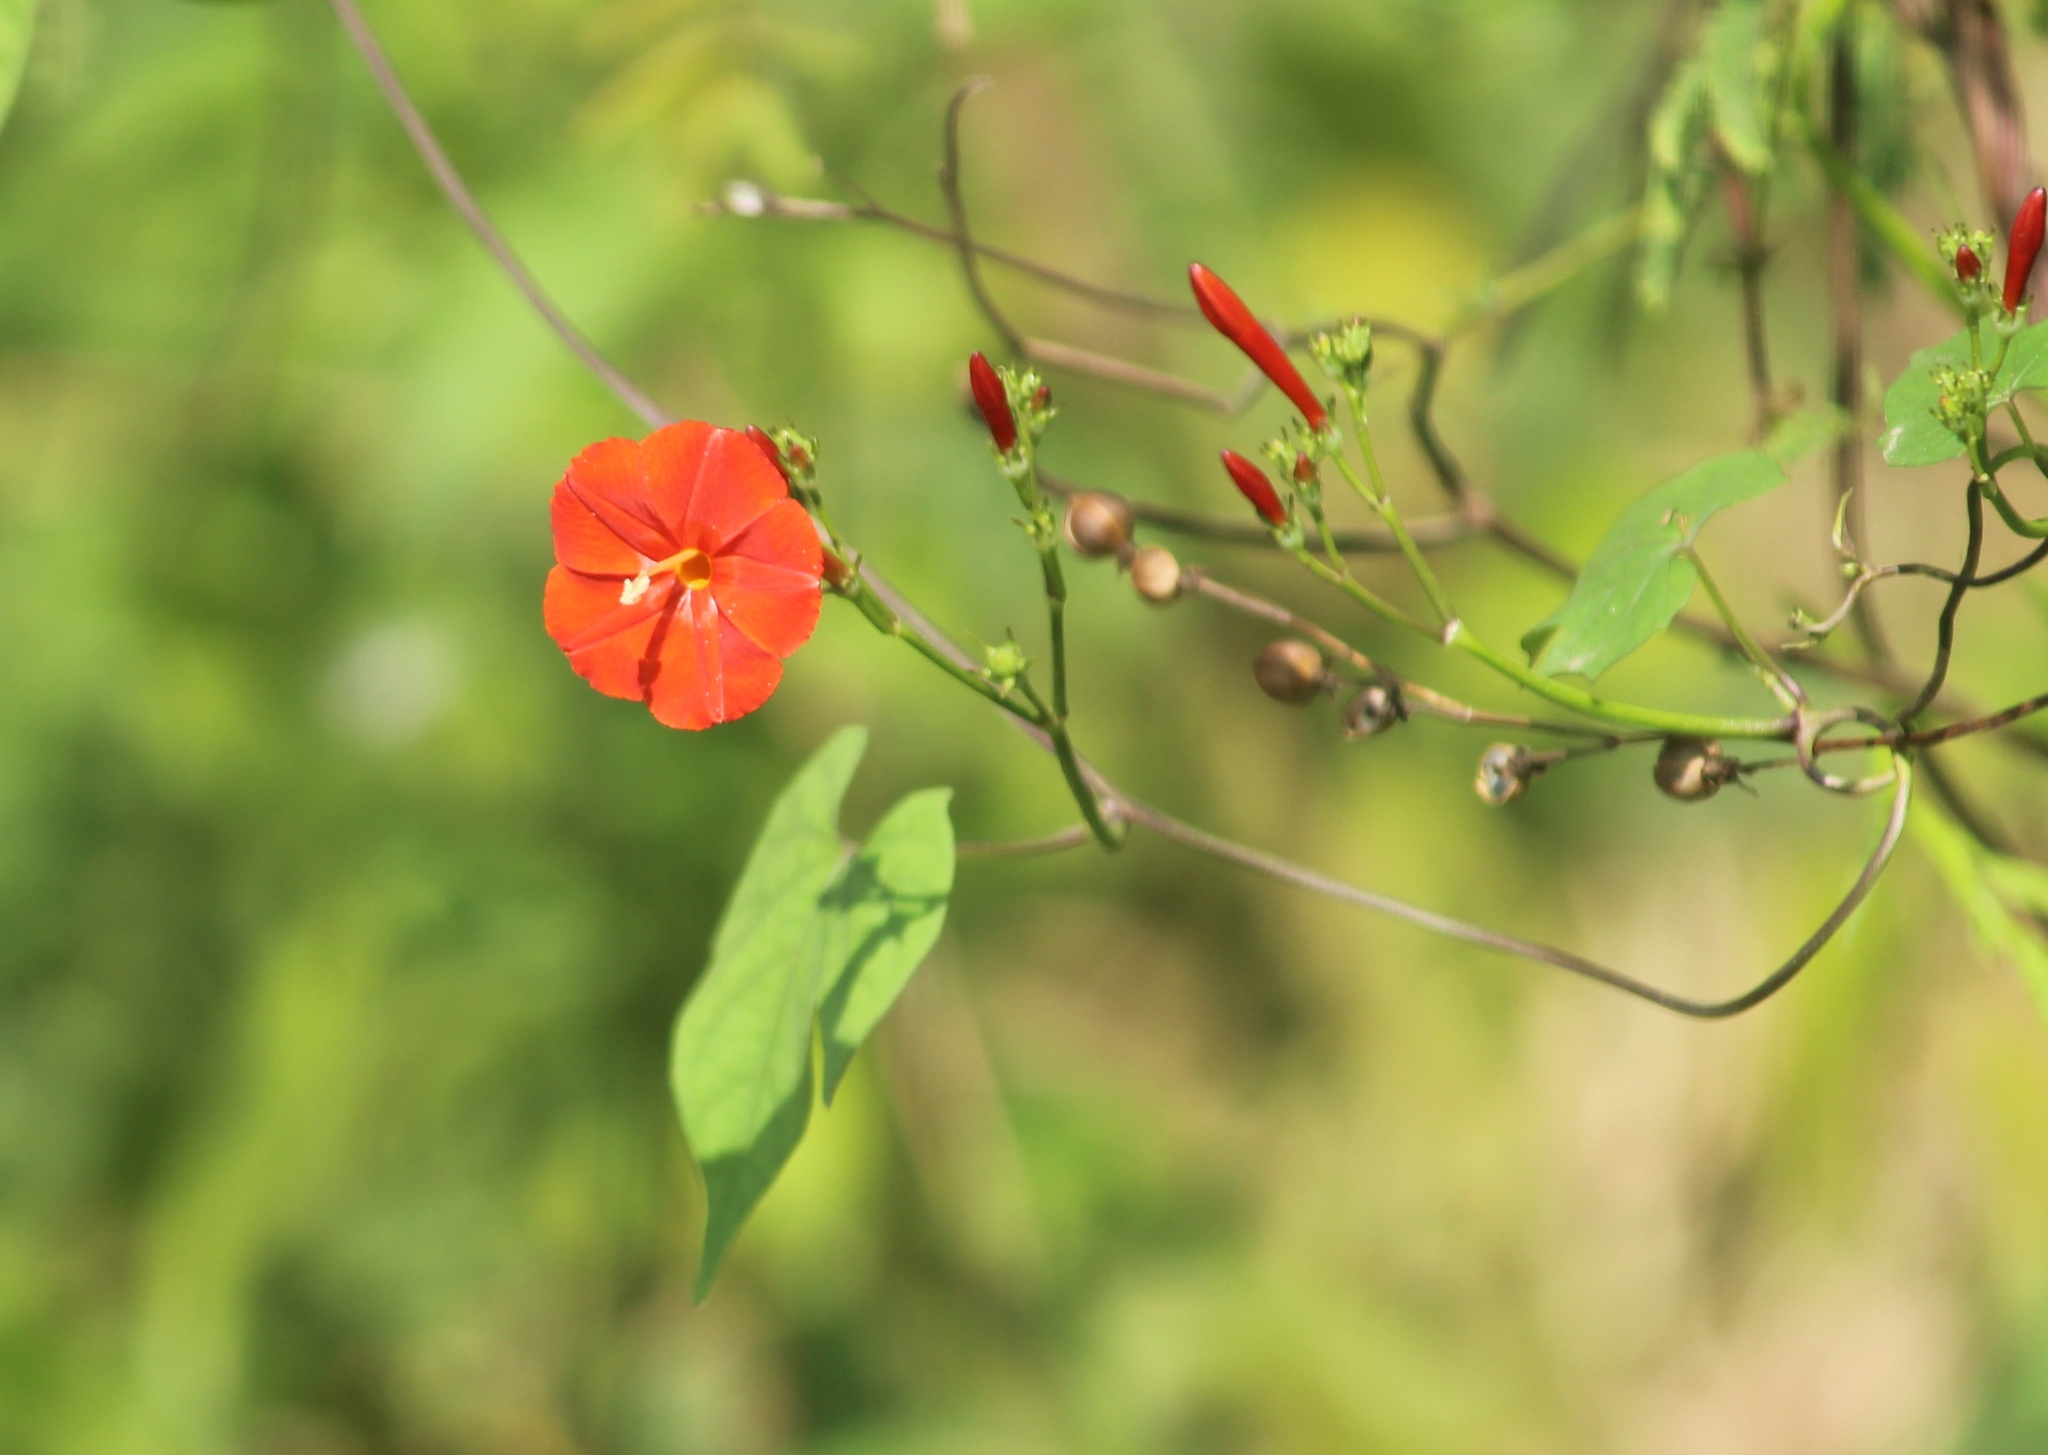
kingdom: Plantae
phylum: Tracheophyta
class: Magnoliopsida
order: Solanales
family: Convolvulaceae
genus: Ipomoea
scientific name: Ipomoea hederifolia
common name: Ivy-leaf morning-glory
